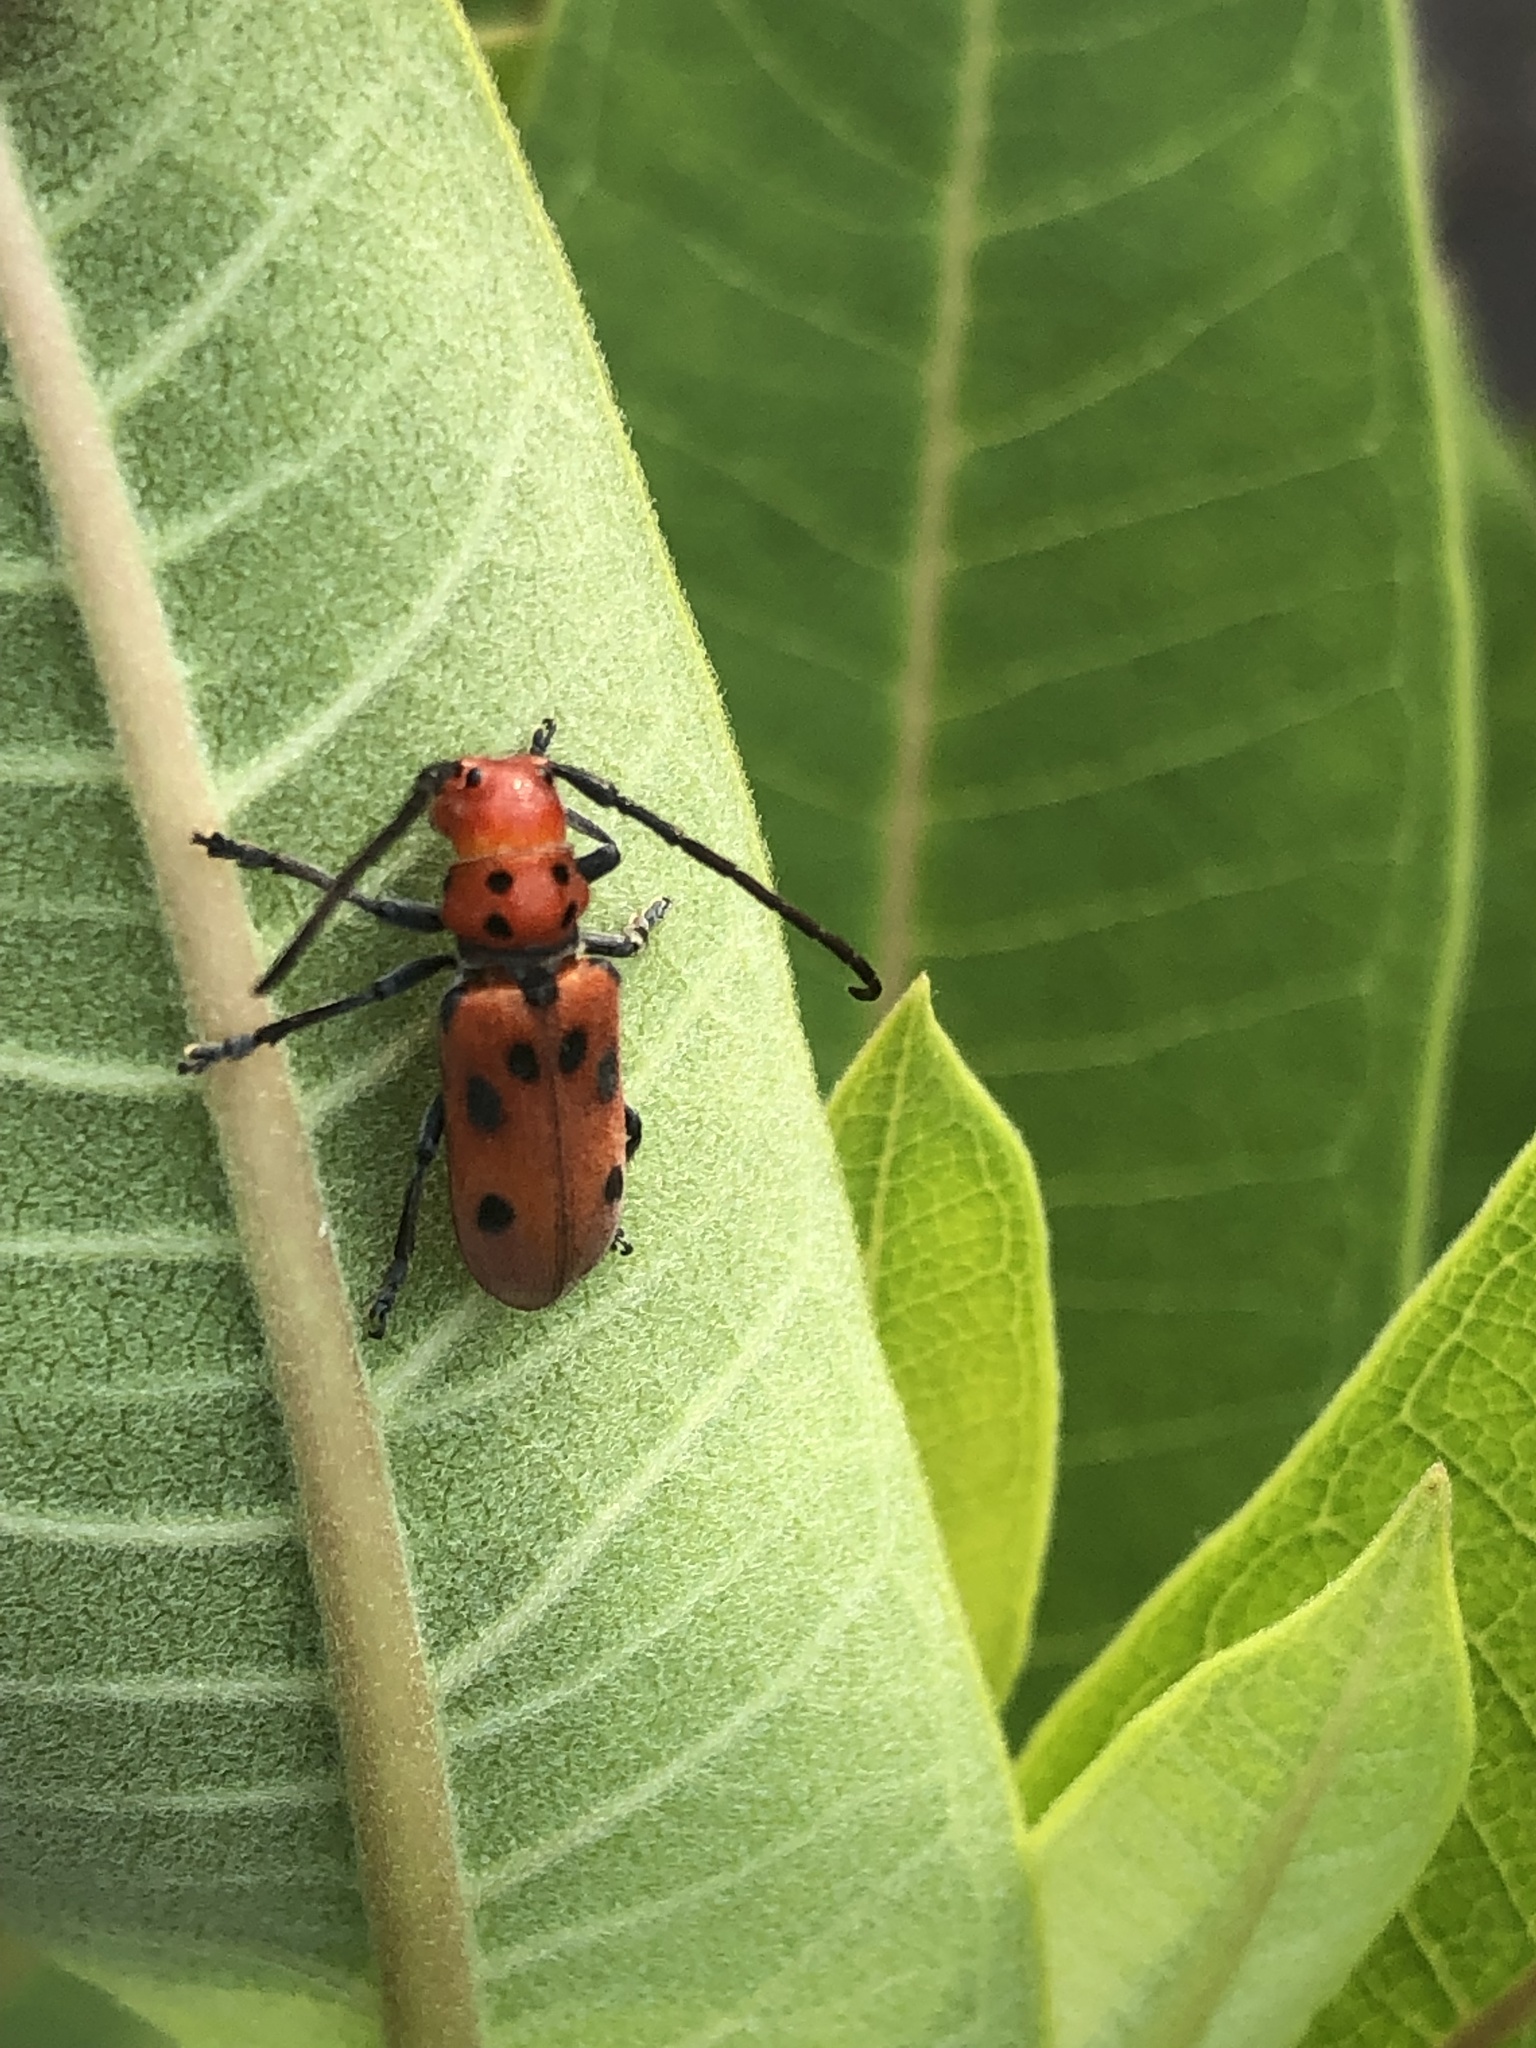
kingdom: Animalia
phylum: Arthropoda
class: Insecta
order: Coleoptera
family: Cerambycidae
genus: Tetraopes
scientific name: Tetraopes tetrophthalmus
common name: Red milkweed beetle
